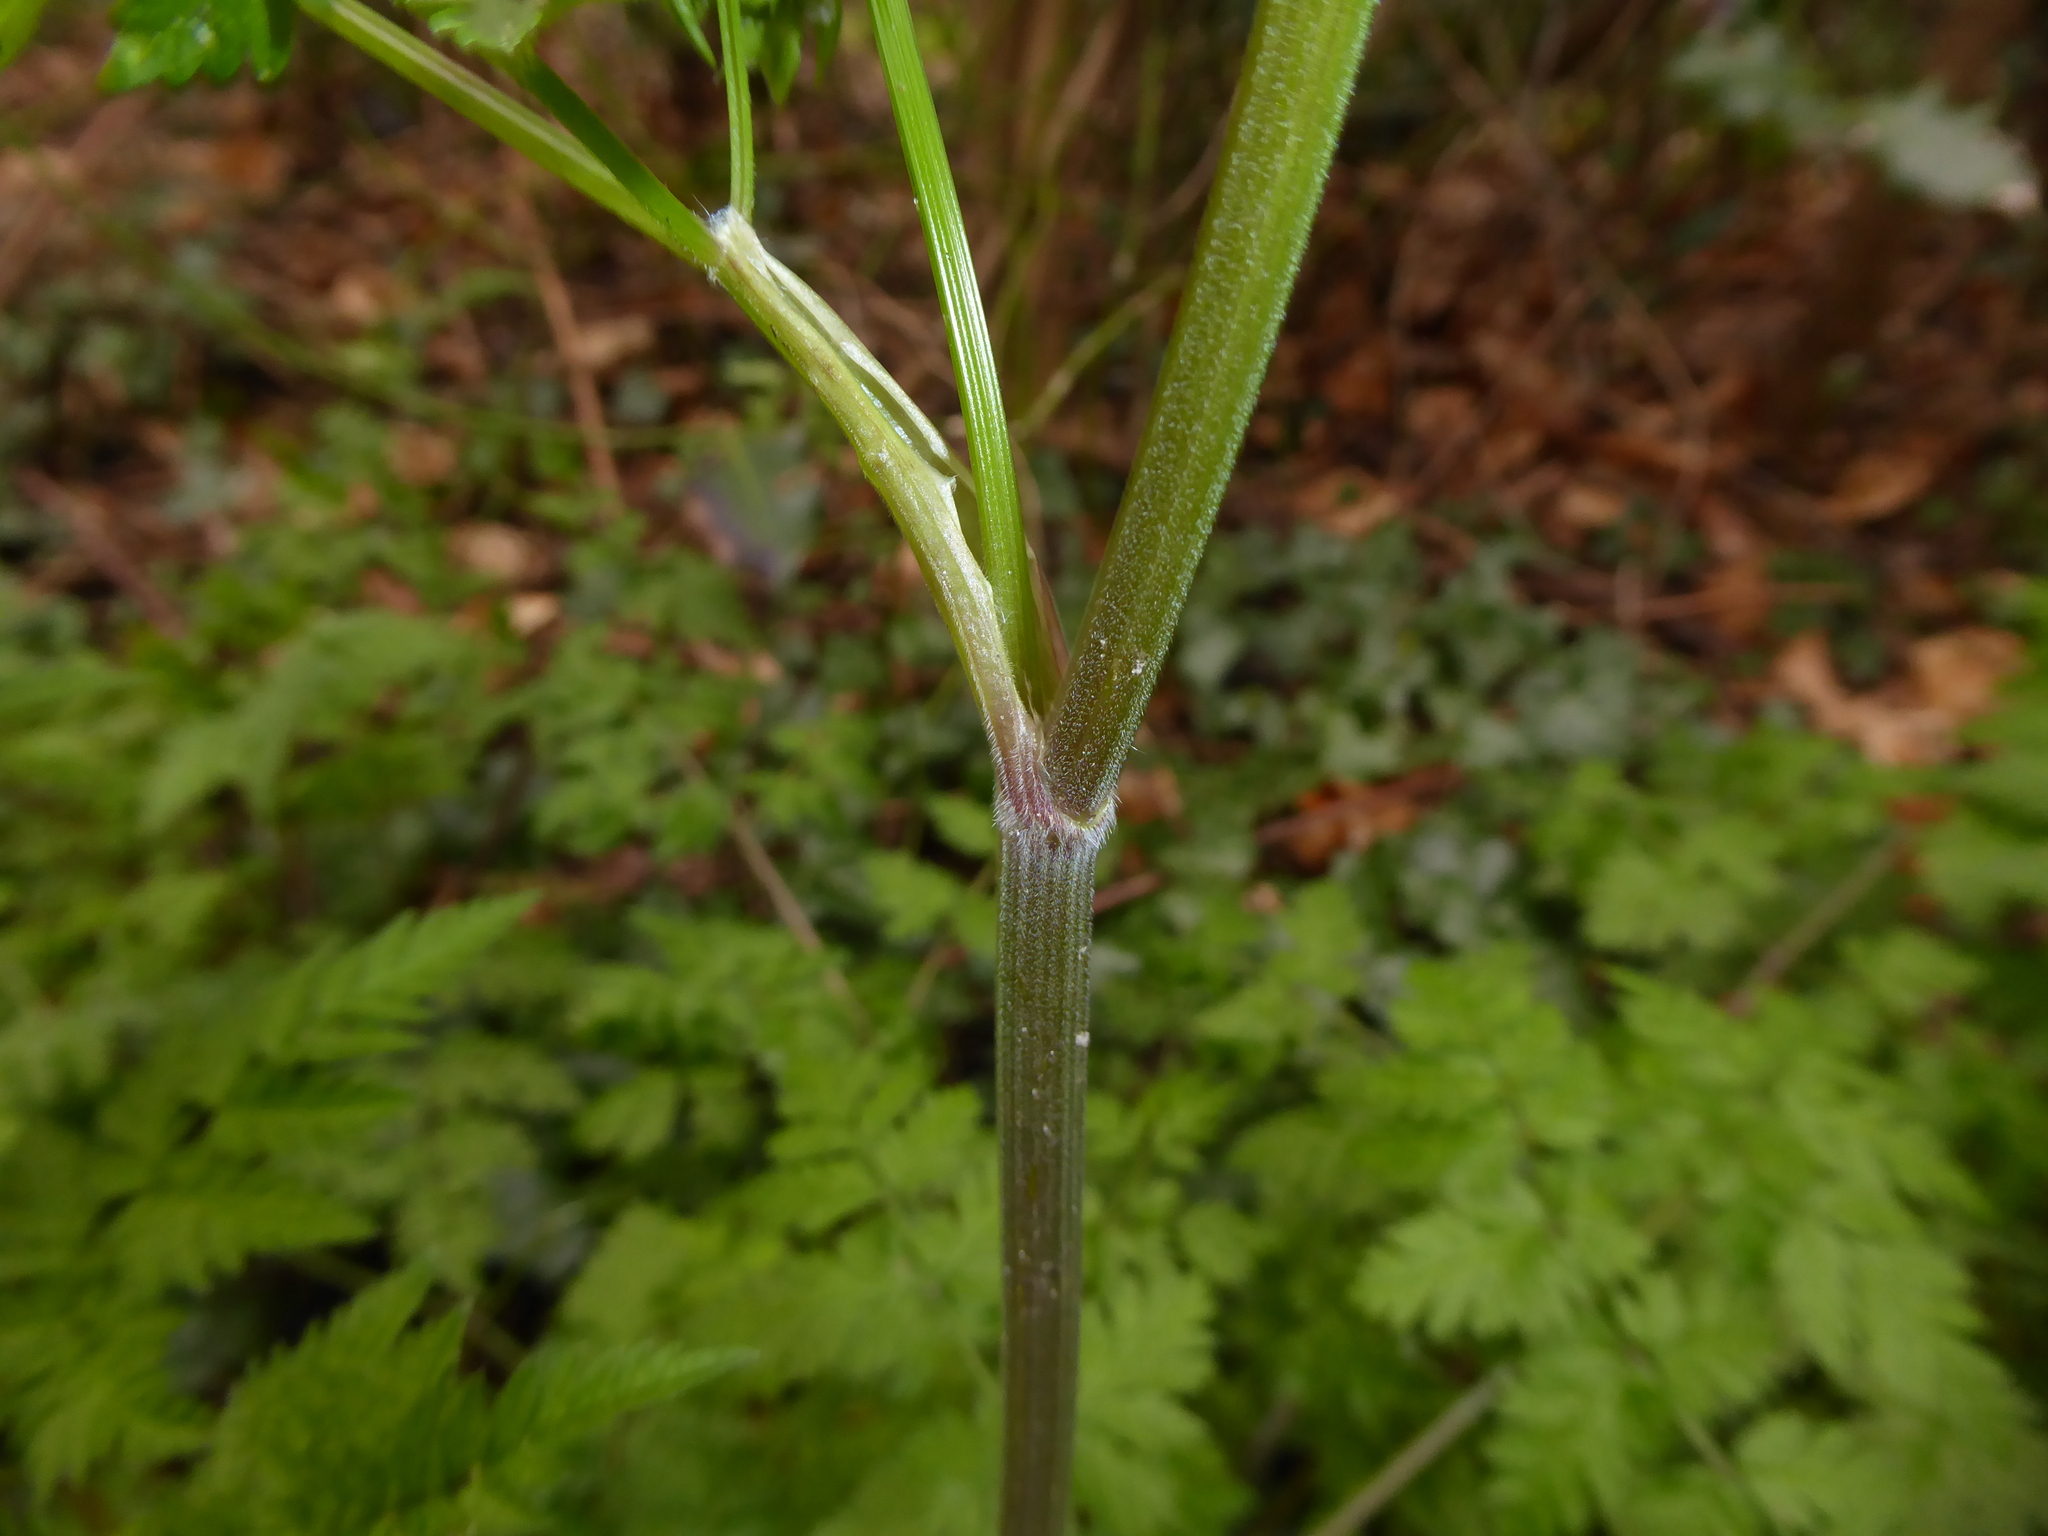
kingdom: Plantae
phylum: Tracheophyta
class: Magnoliopsida
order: Apiales
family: Apiaceae
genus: Anthriscus
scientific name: Anthriscus sylvestris
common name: Cow parsley
